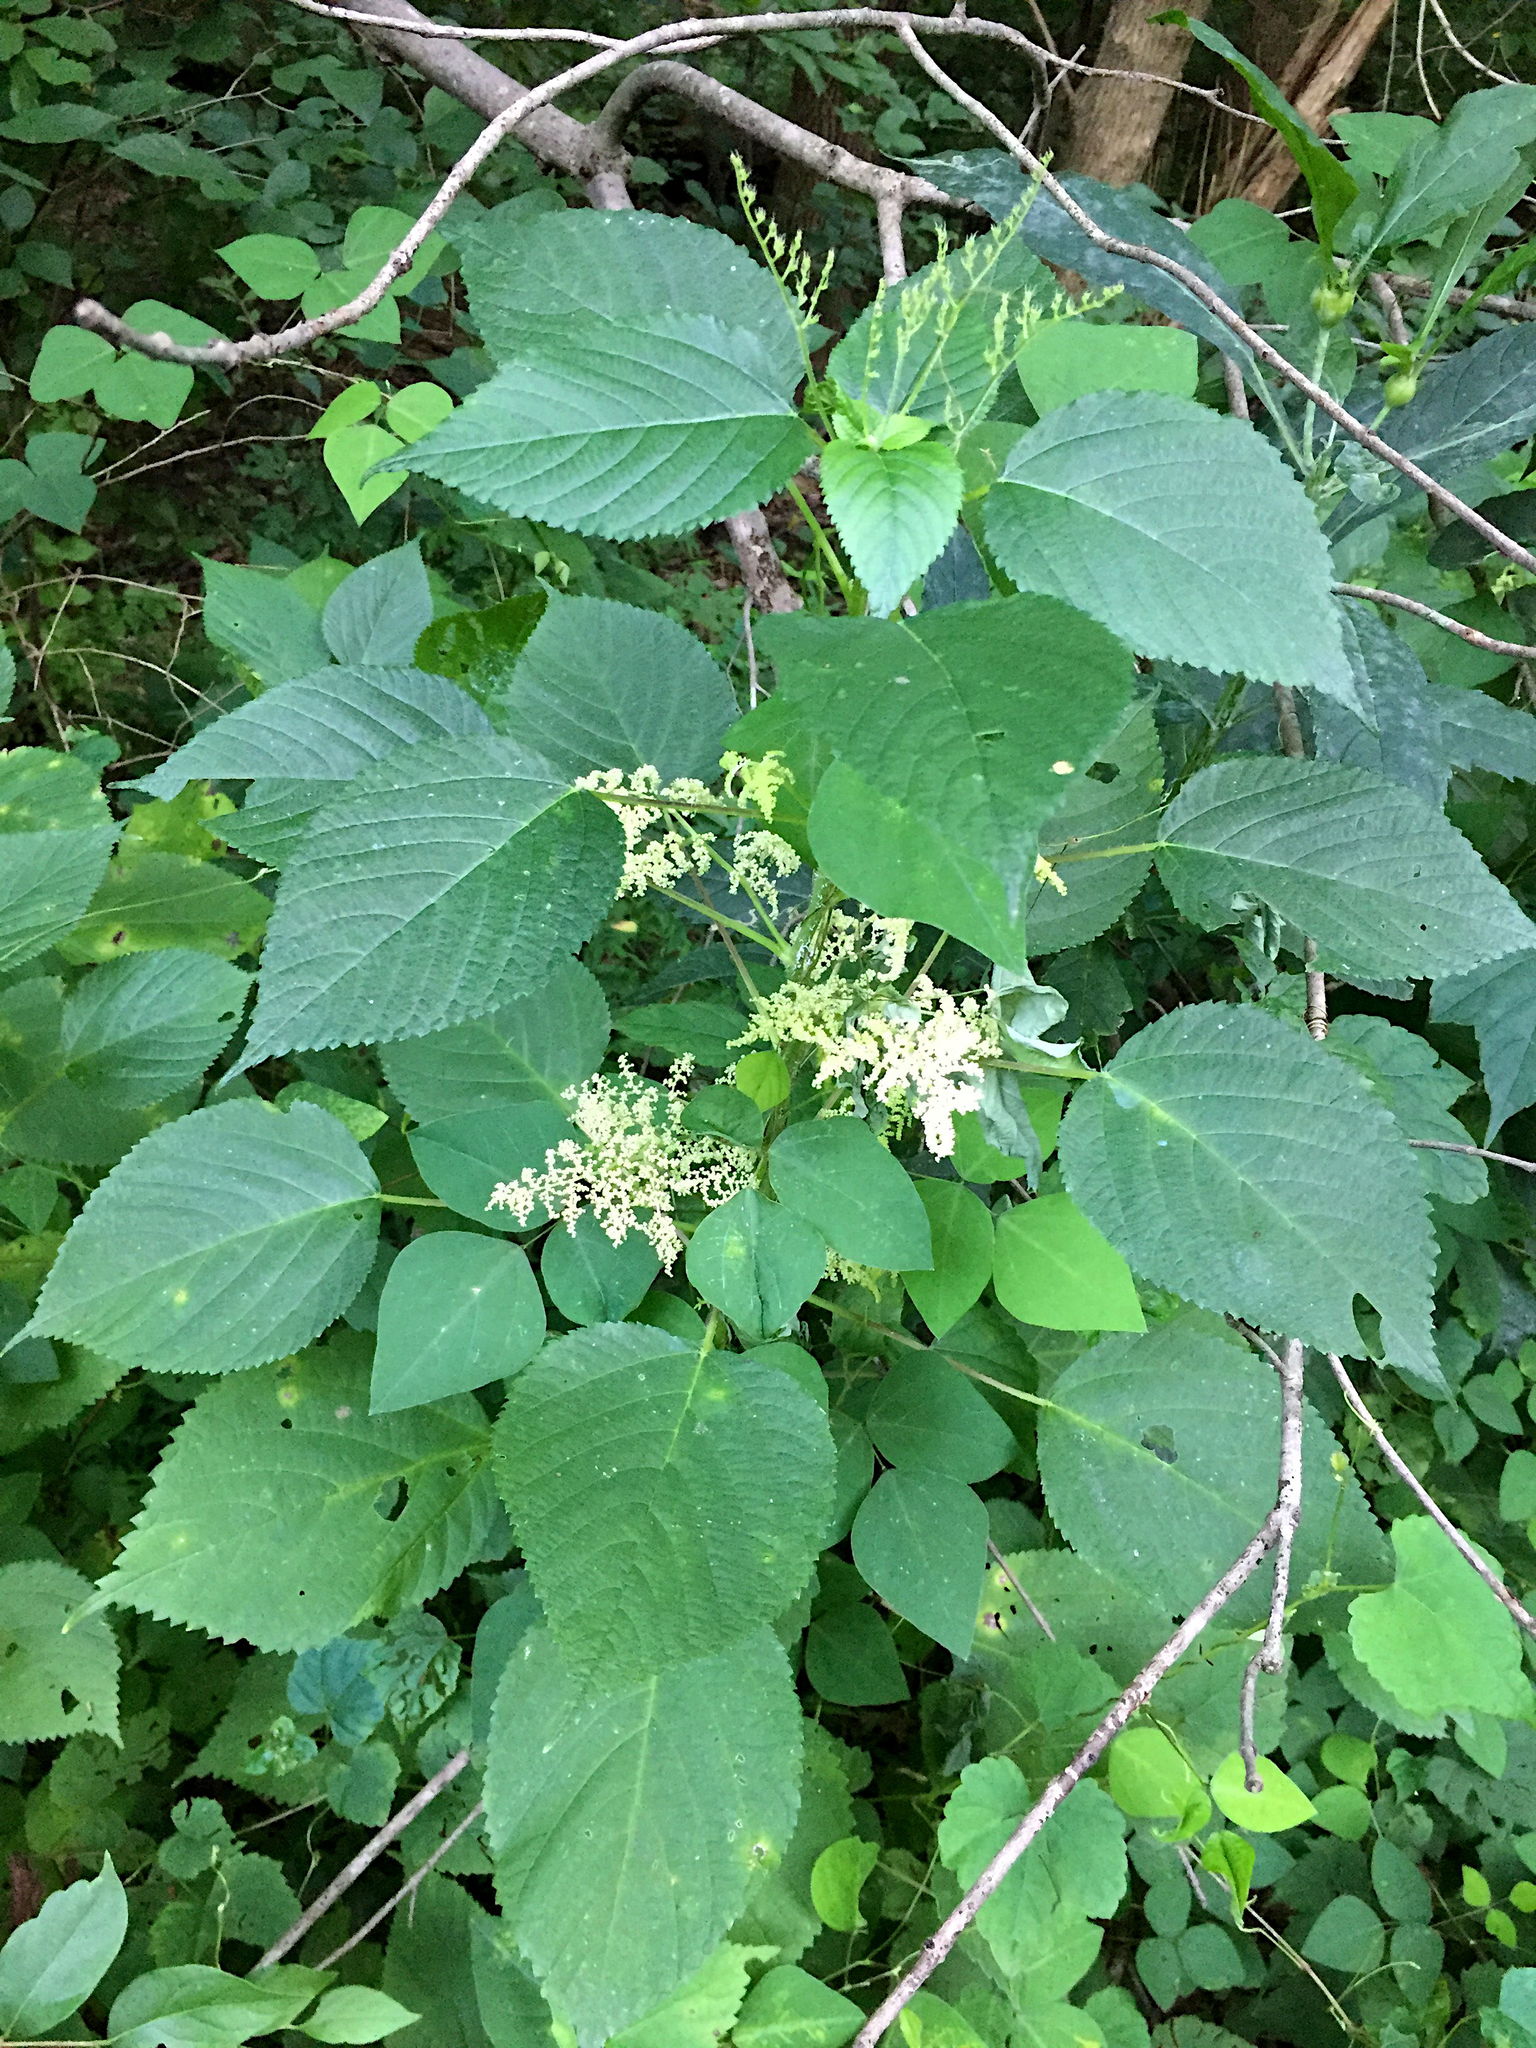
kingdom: Plantae
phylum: Tracheophyta
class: Magnoliopsida
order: Rosales
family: Urticaceae
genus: Laportea
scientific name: Laportea canadensis
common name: Canada nettle
